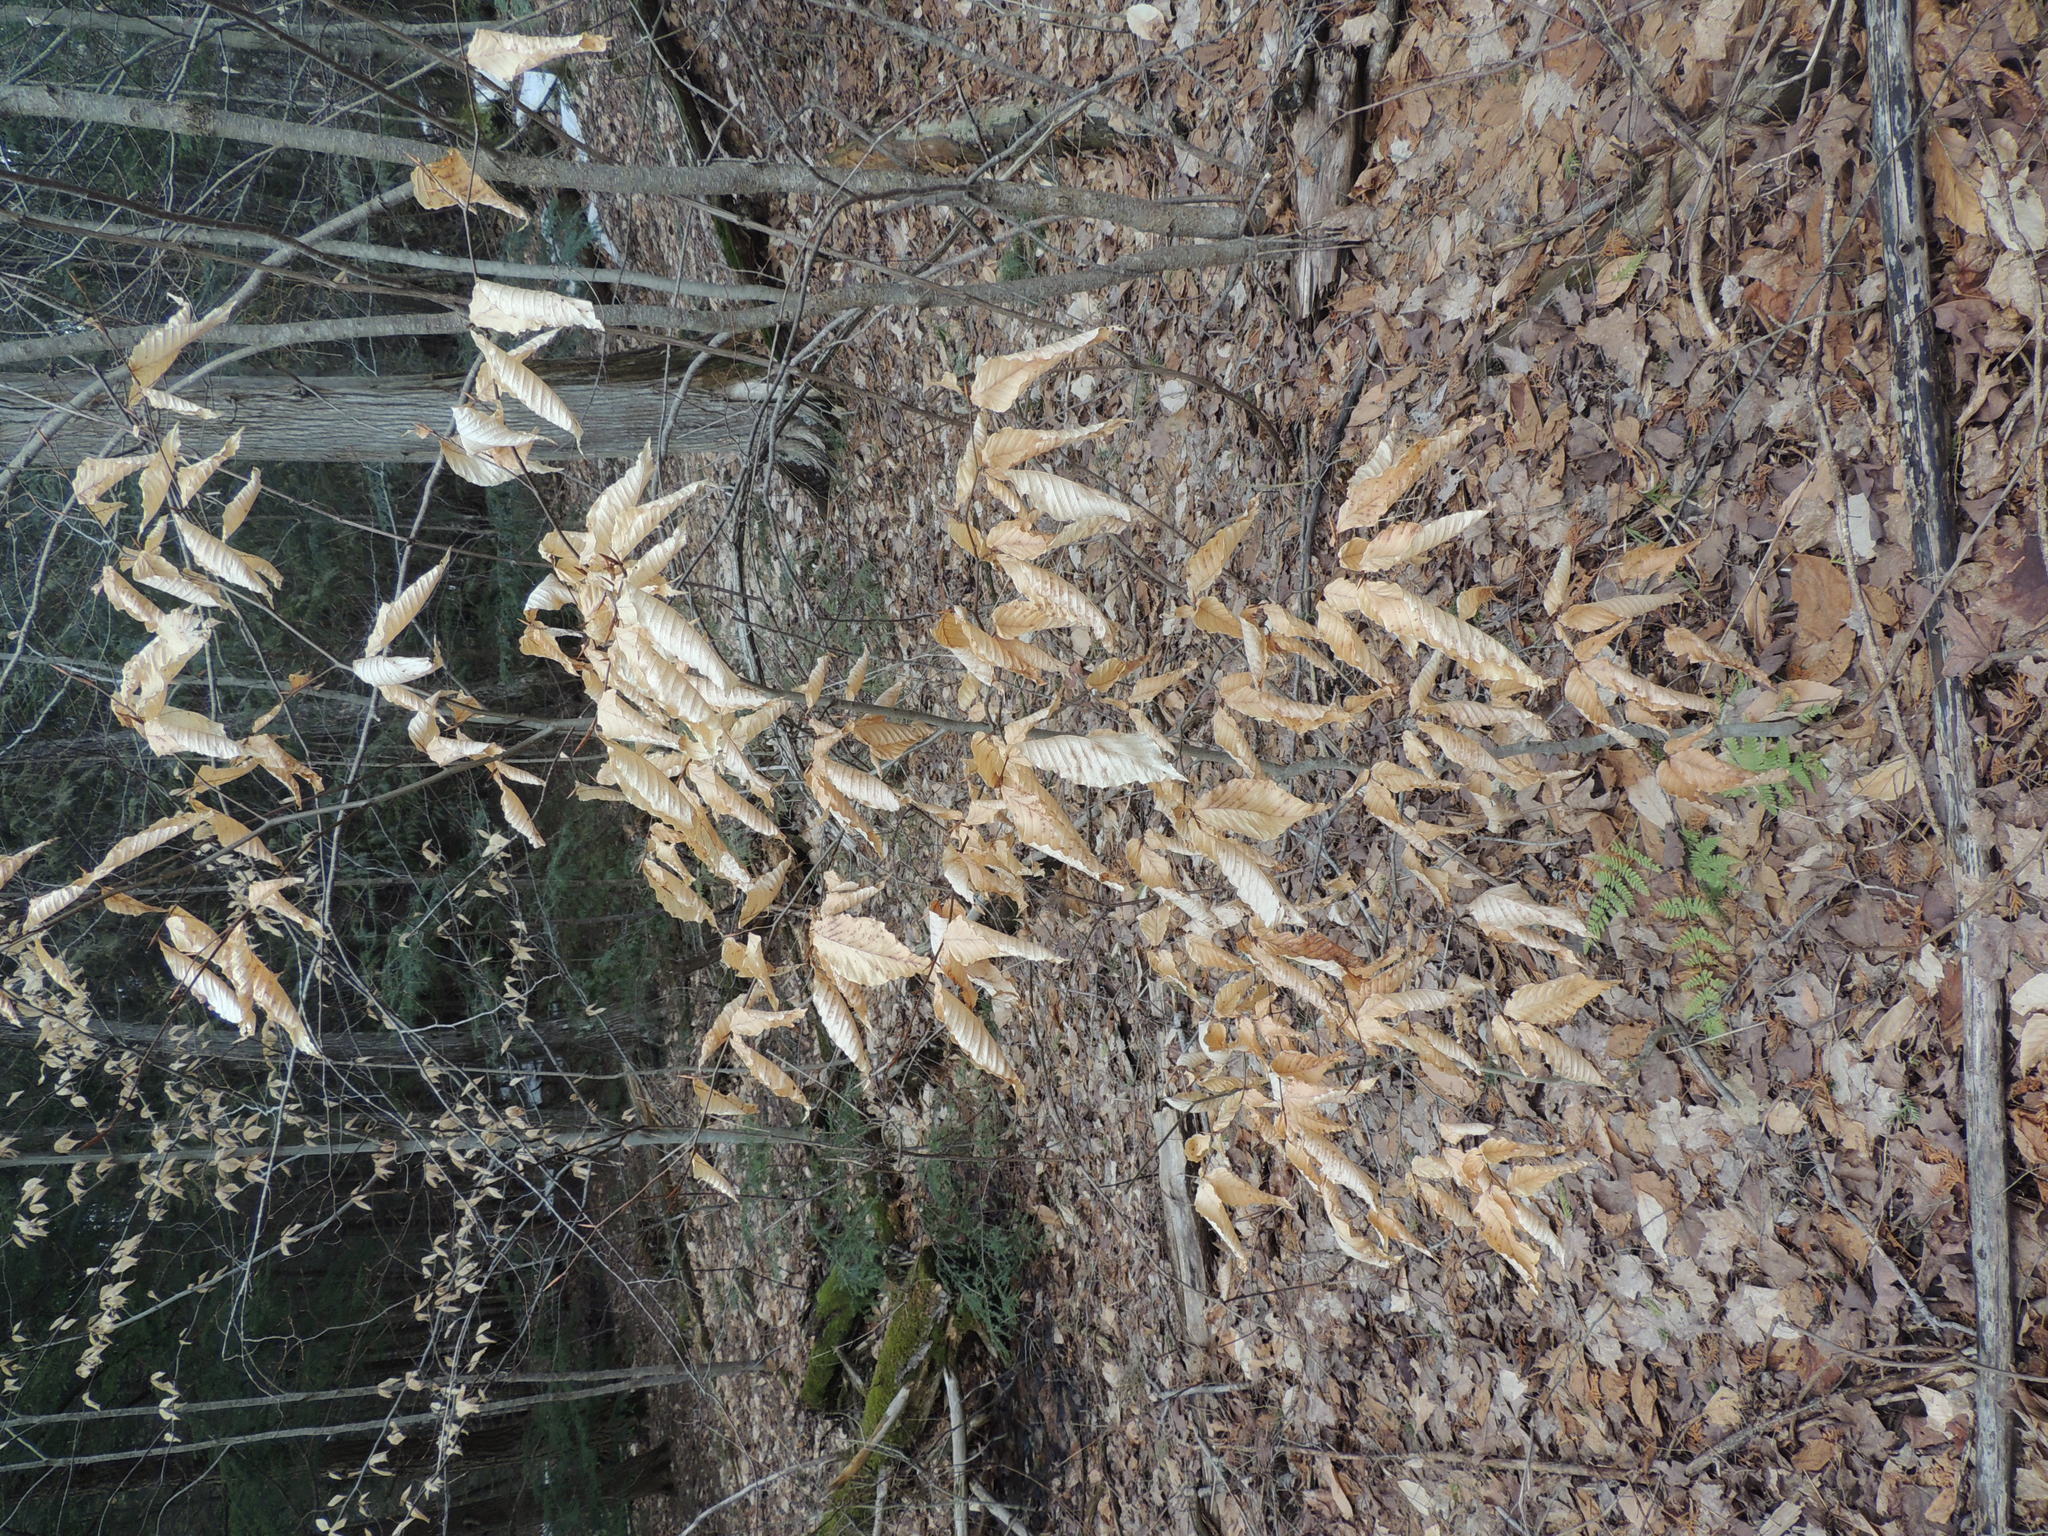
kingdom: Plantae
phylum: Tracheophyta
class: Magnoliopsida
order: Fagales
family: Fagaceae
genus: Fagus
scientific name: Fagus grandifolia
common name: American beech
